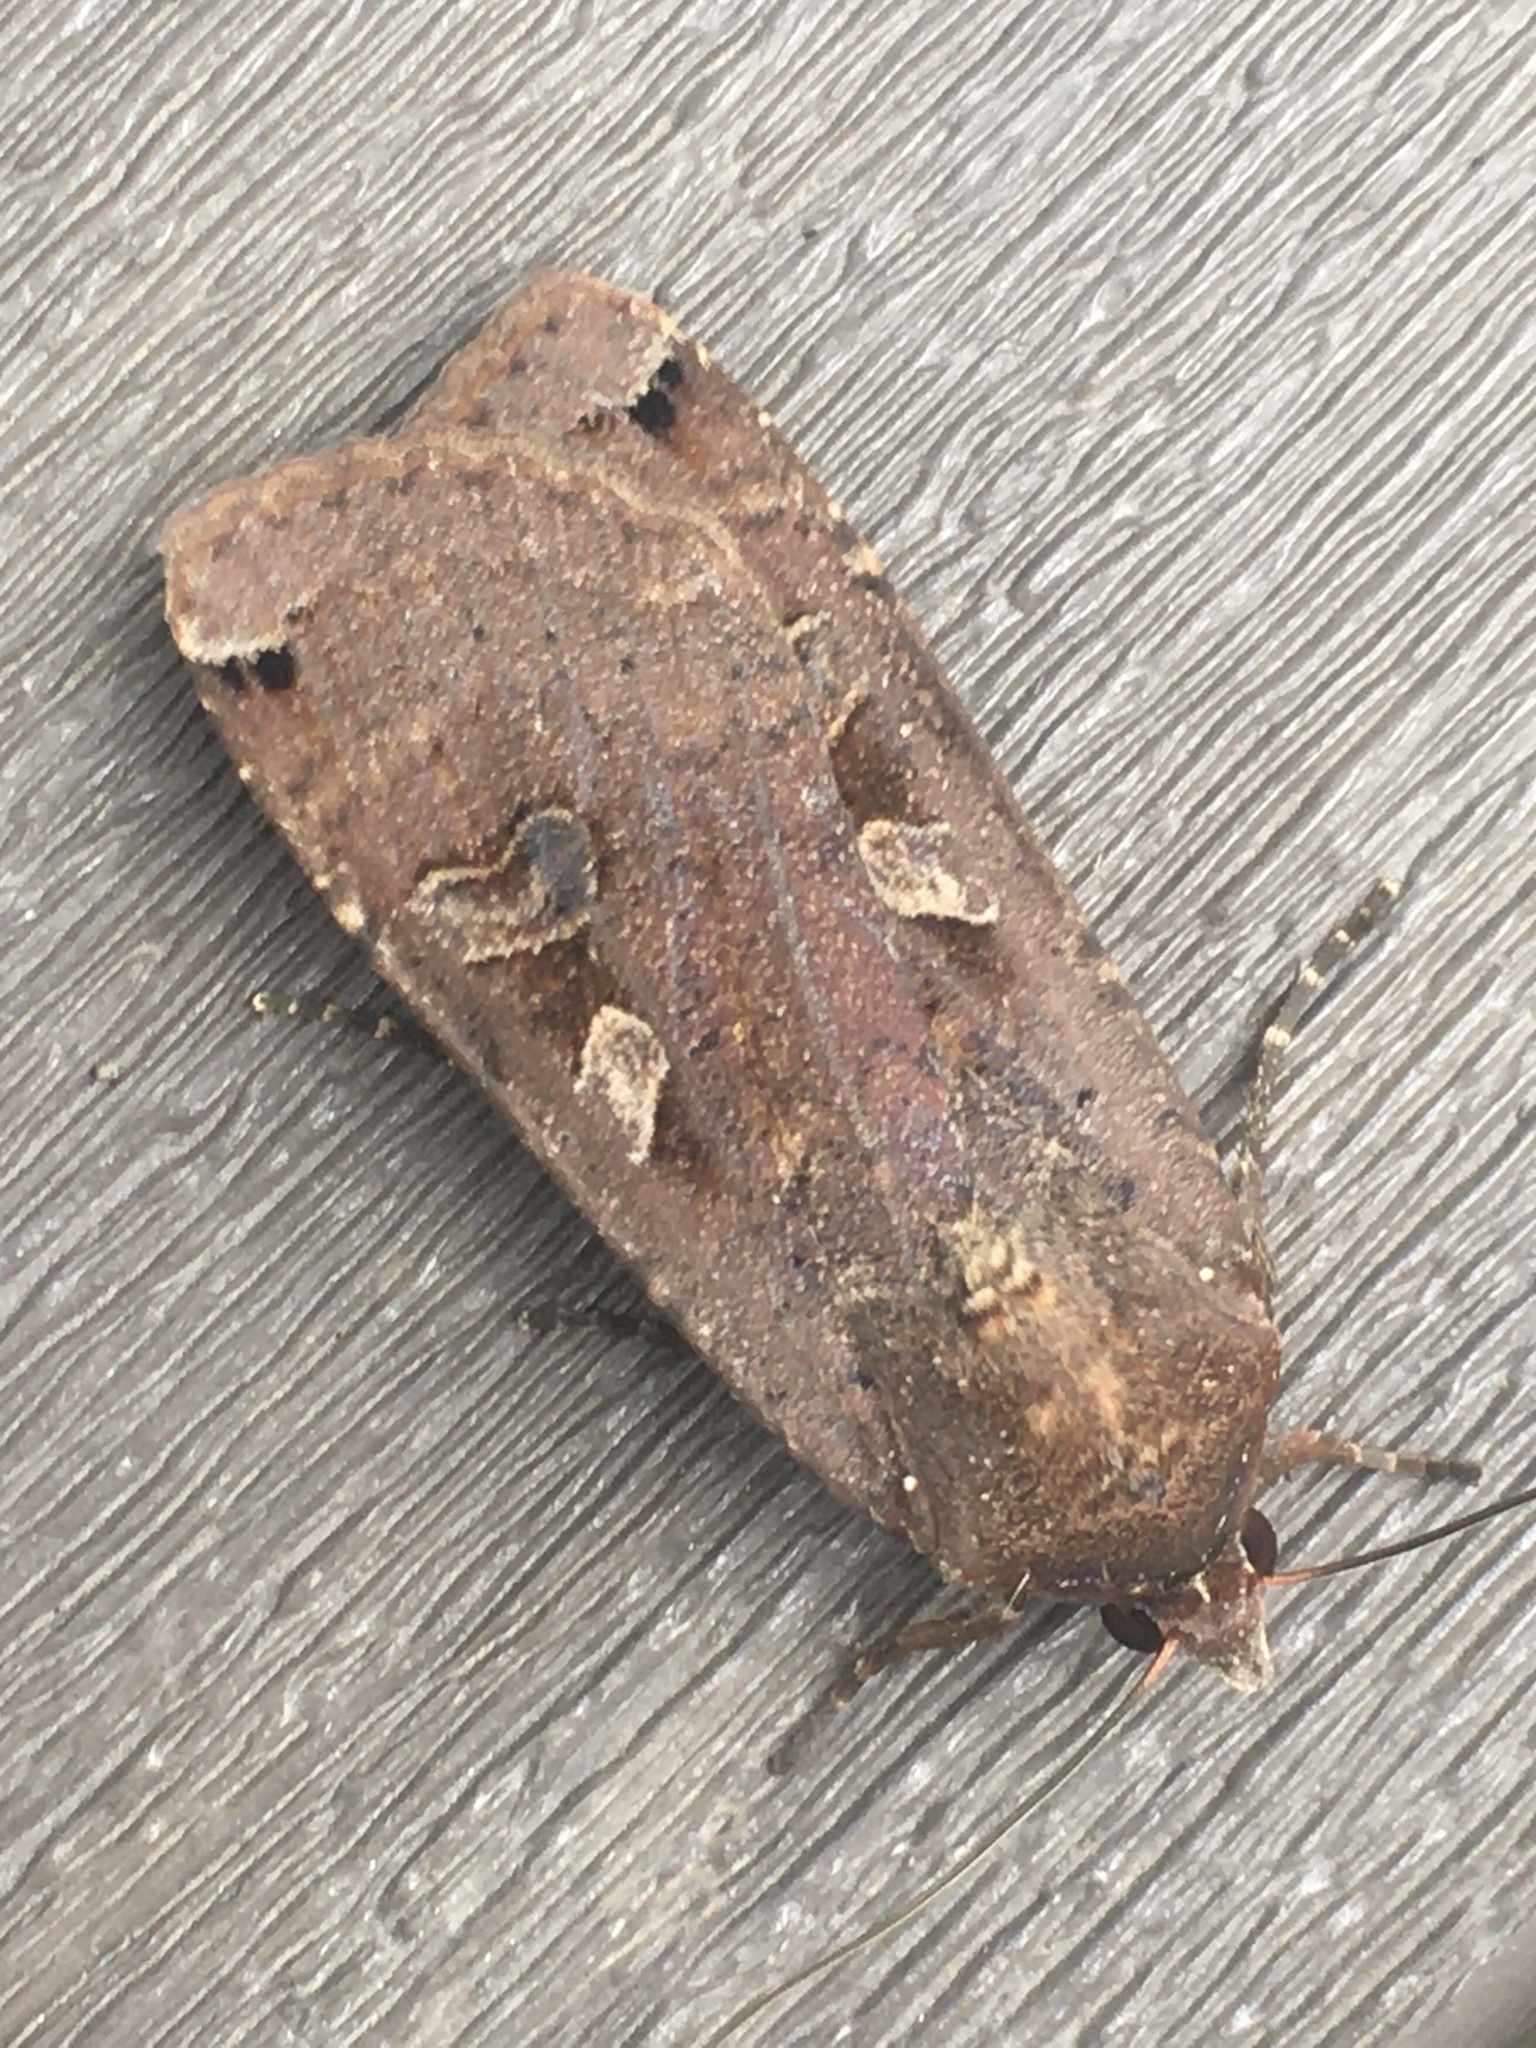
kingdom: Animalia
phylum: Arthropoda
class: Insecta
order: Lepidoptera
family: Noctuidae
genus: Noctua
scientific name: Noctua pronuba
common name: Large yellow underwing
